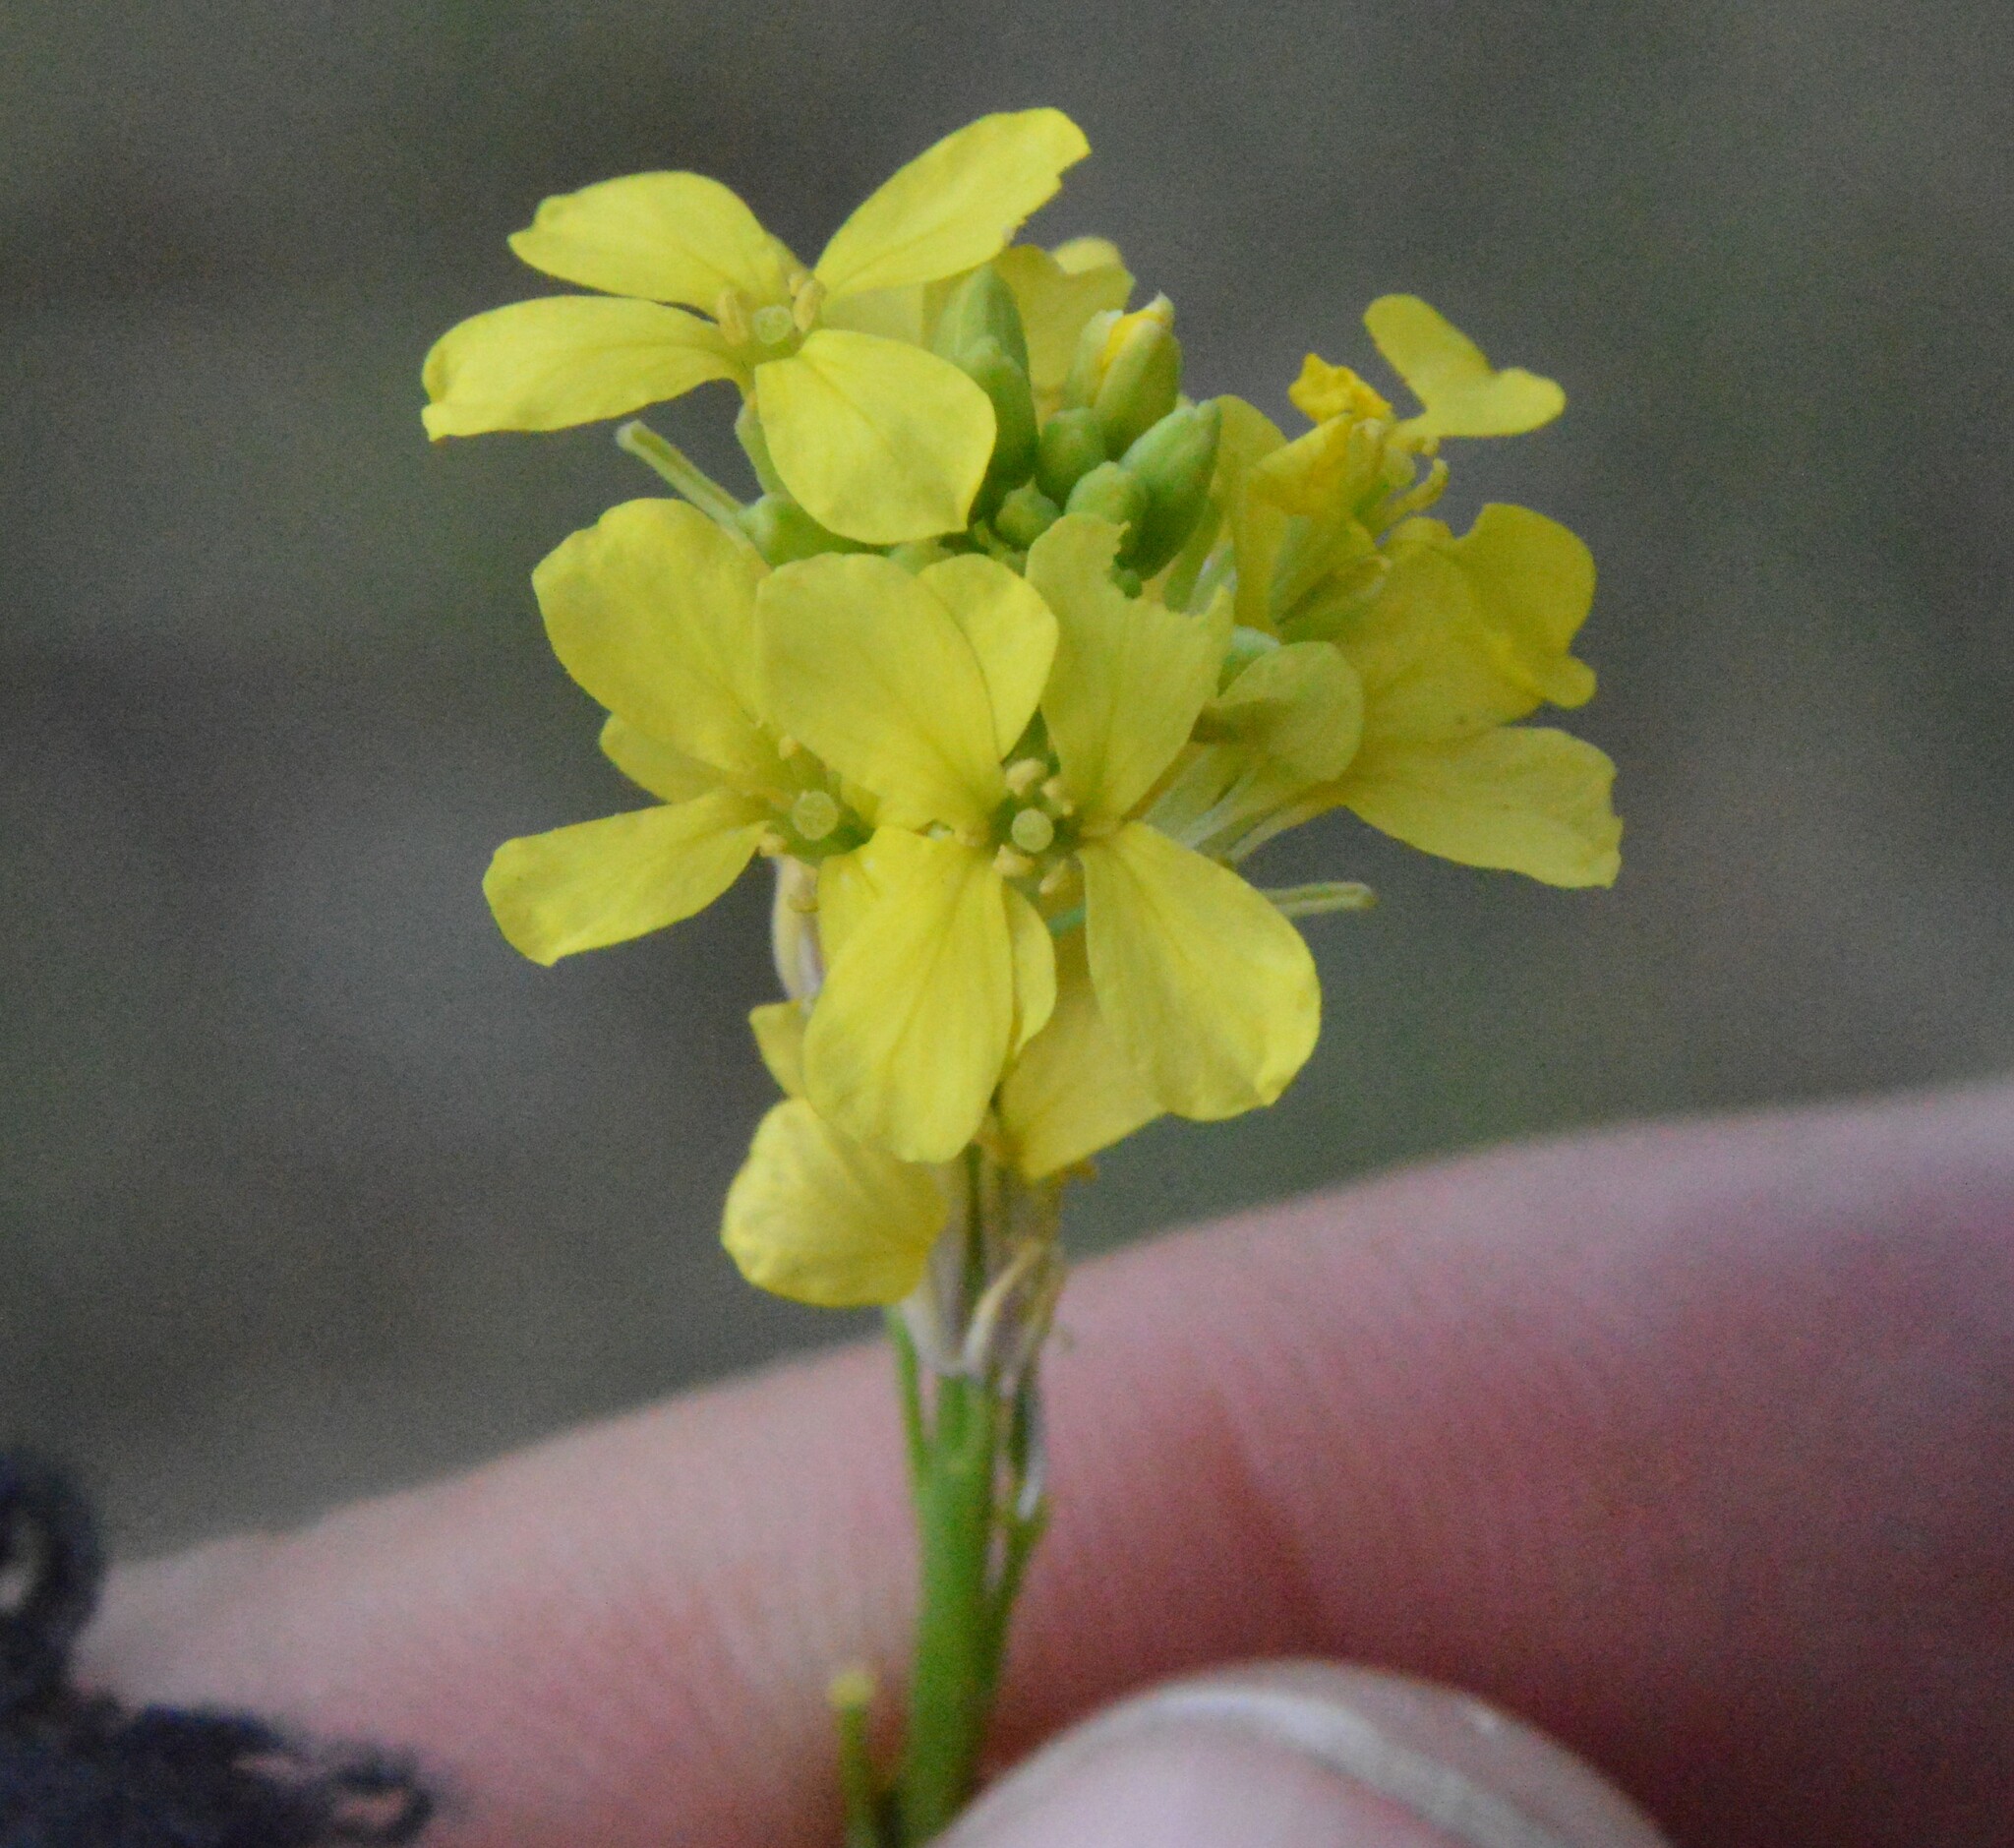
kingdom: Plantae
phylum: Tracheophyta
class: Magnoliopsida
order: Brassicales
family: Brassicaceae
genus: Rapistrum
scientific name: Rapistrum rugosum
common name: Annual bastardcabbage
